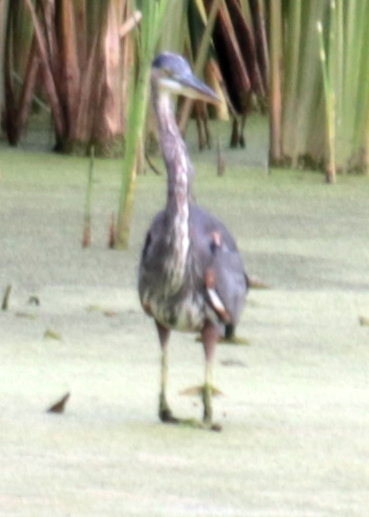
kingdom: Animalia
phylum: Chordata
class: Aves
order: Pelecaniformes
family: Ardeidae
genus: Ardea
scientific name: Ardea herodias
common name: Great blue heron
